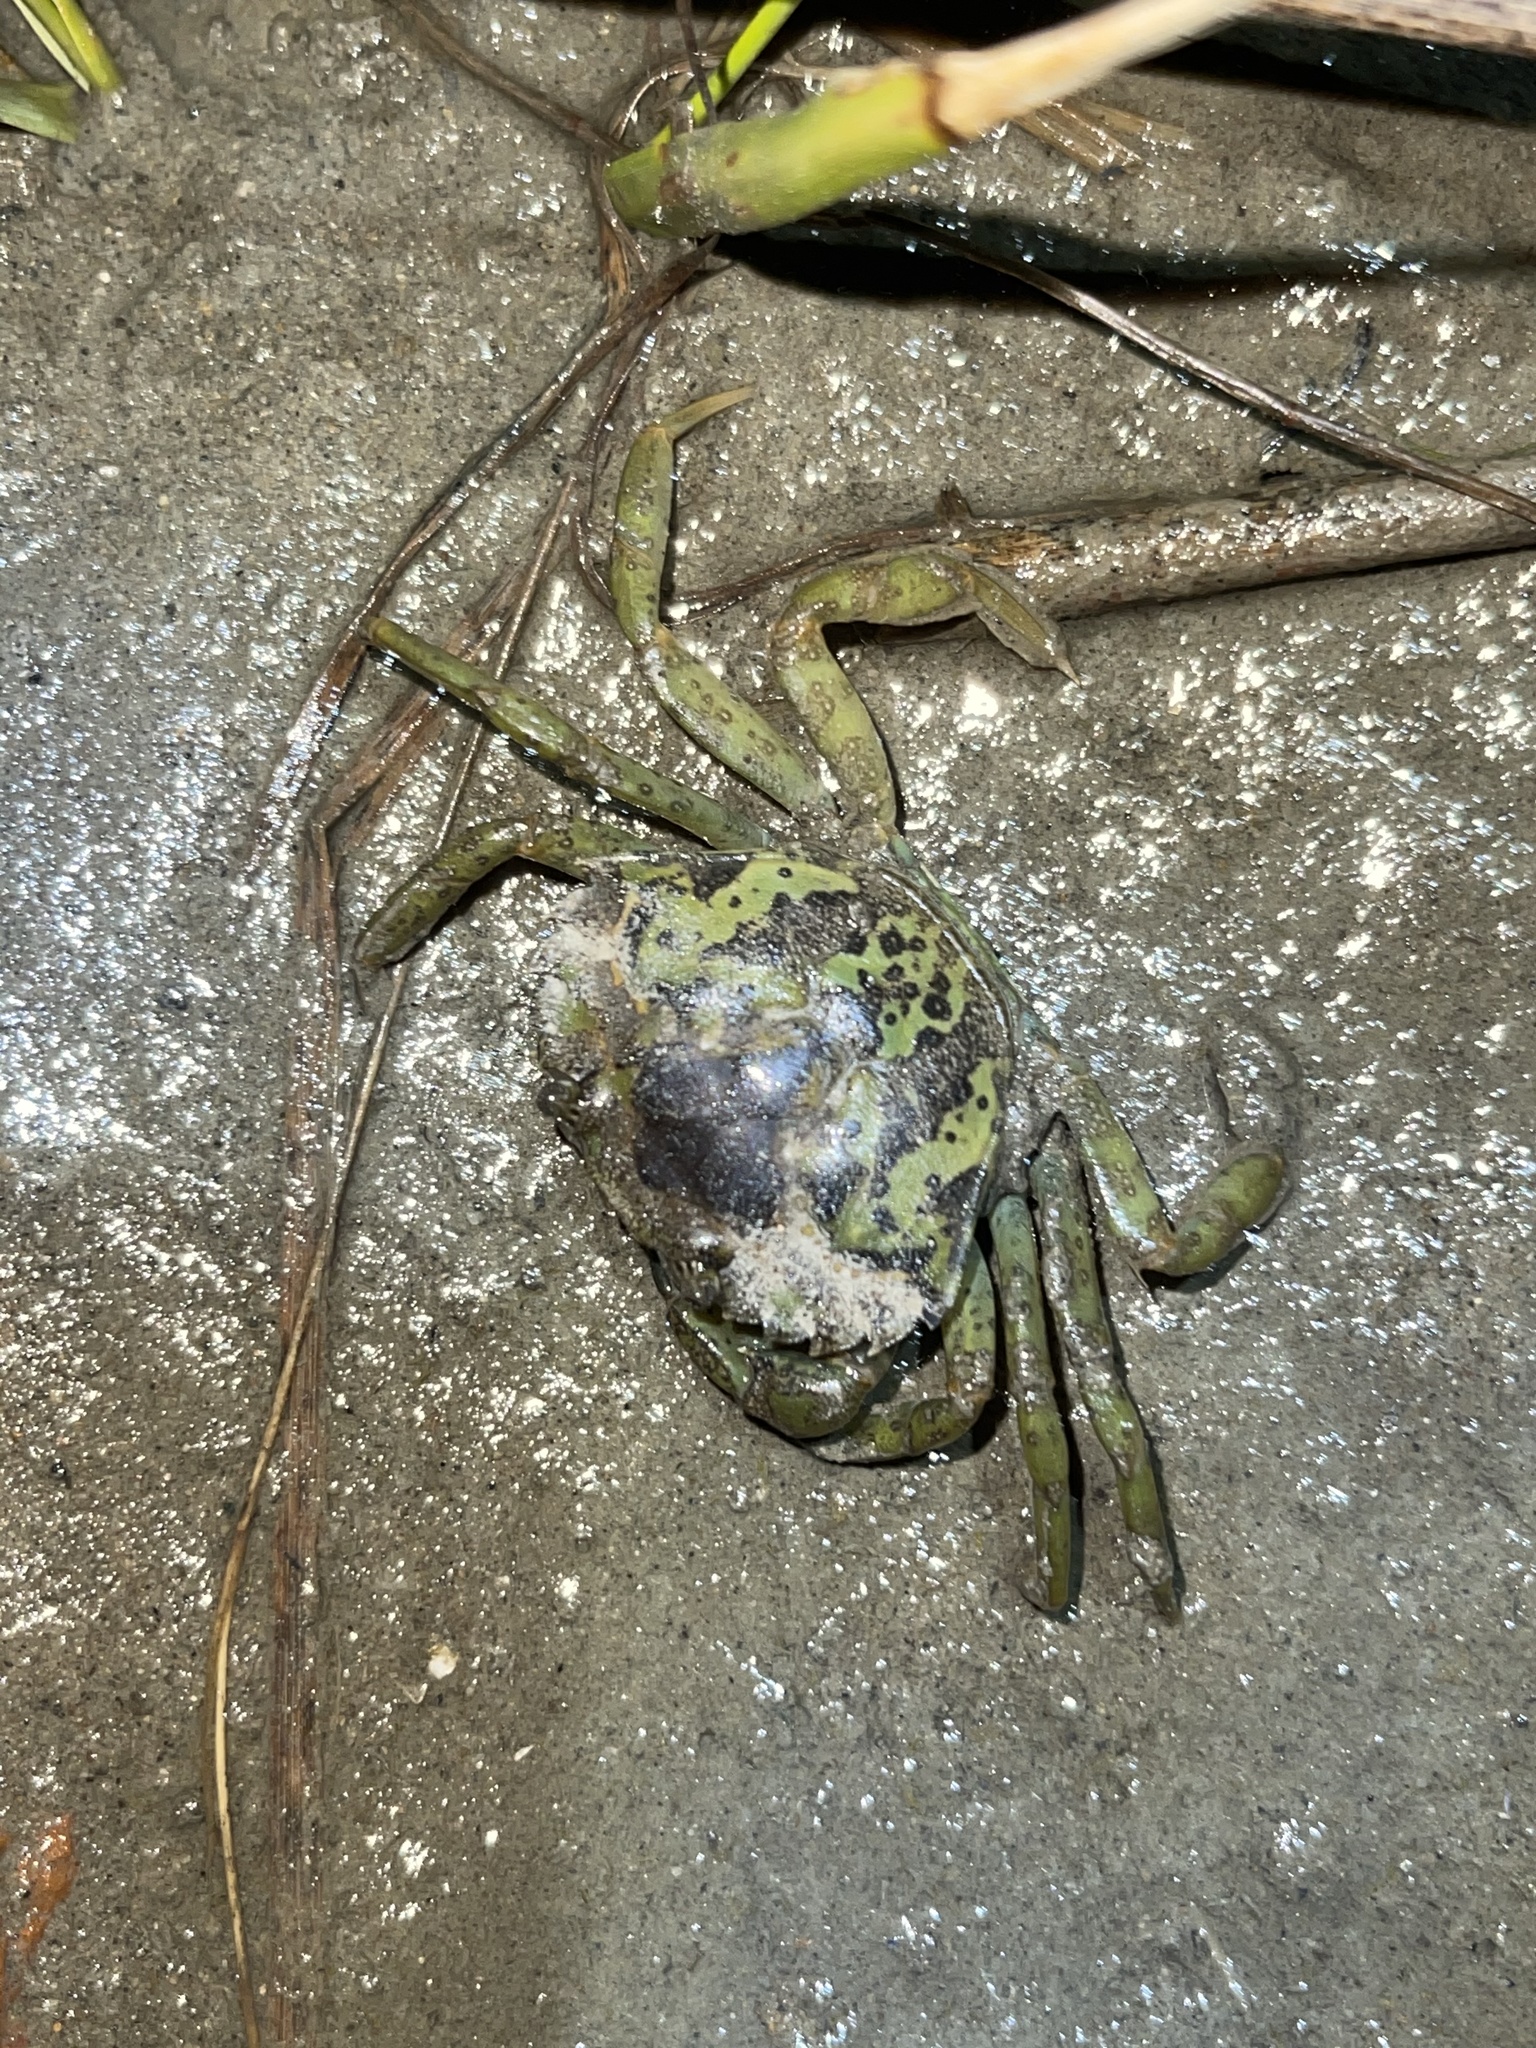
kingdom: Animalia
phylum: Arthropoda
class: Malacostraca
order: Decapoda
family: Carcinidae
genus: Carcinus
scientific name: Carcinus maenas
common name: European green crab
